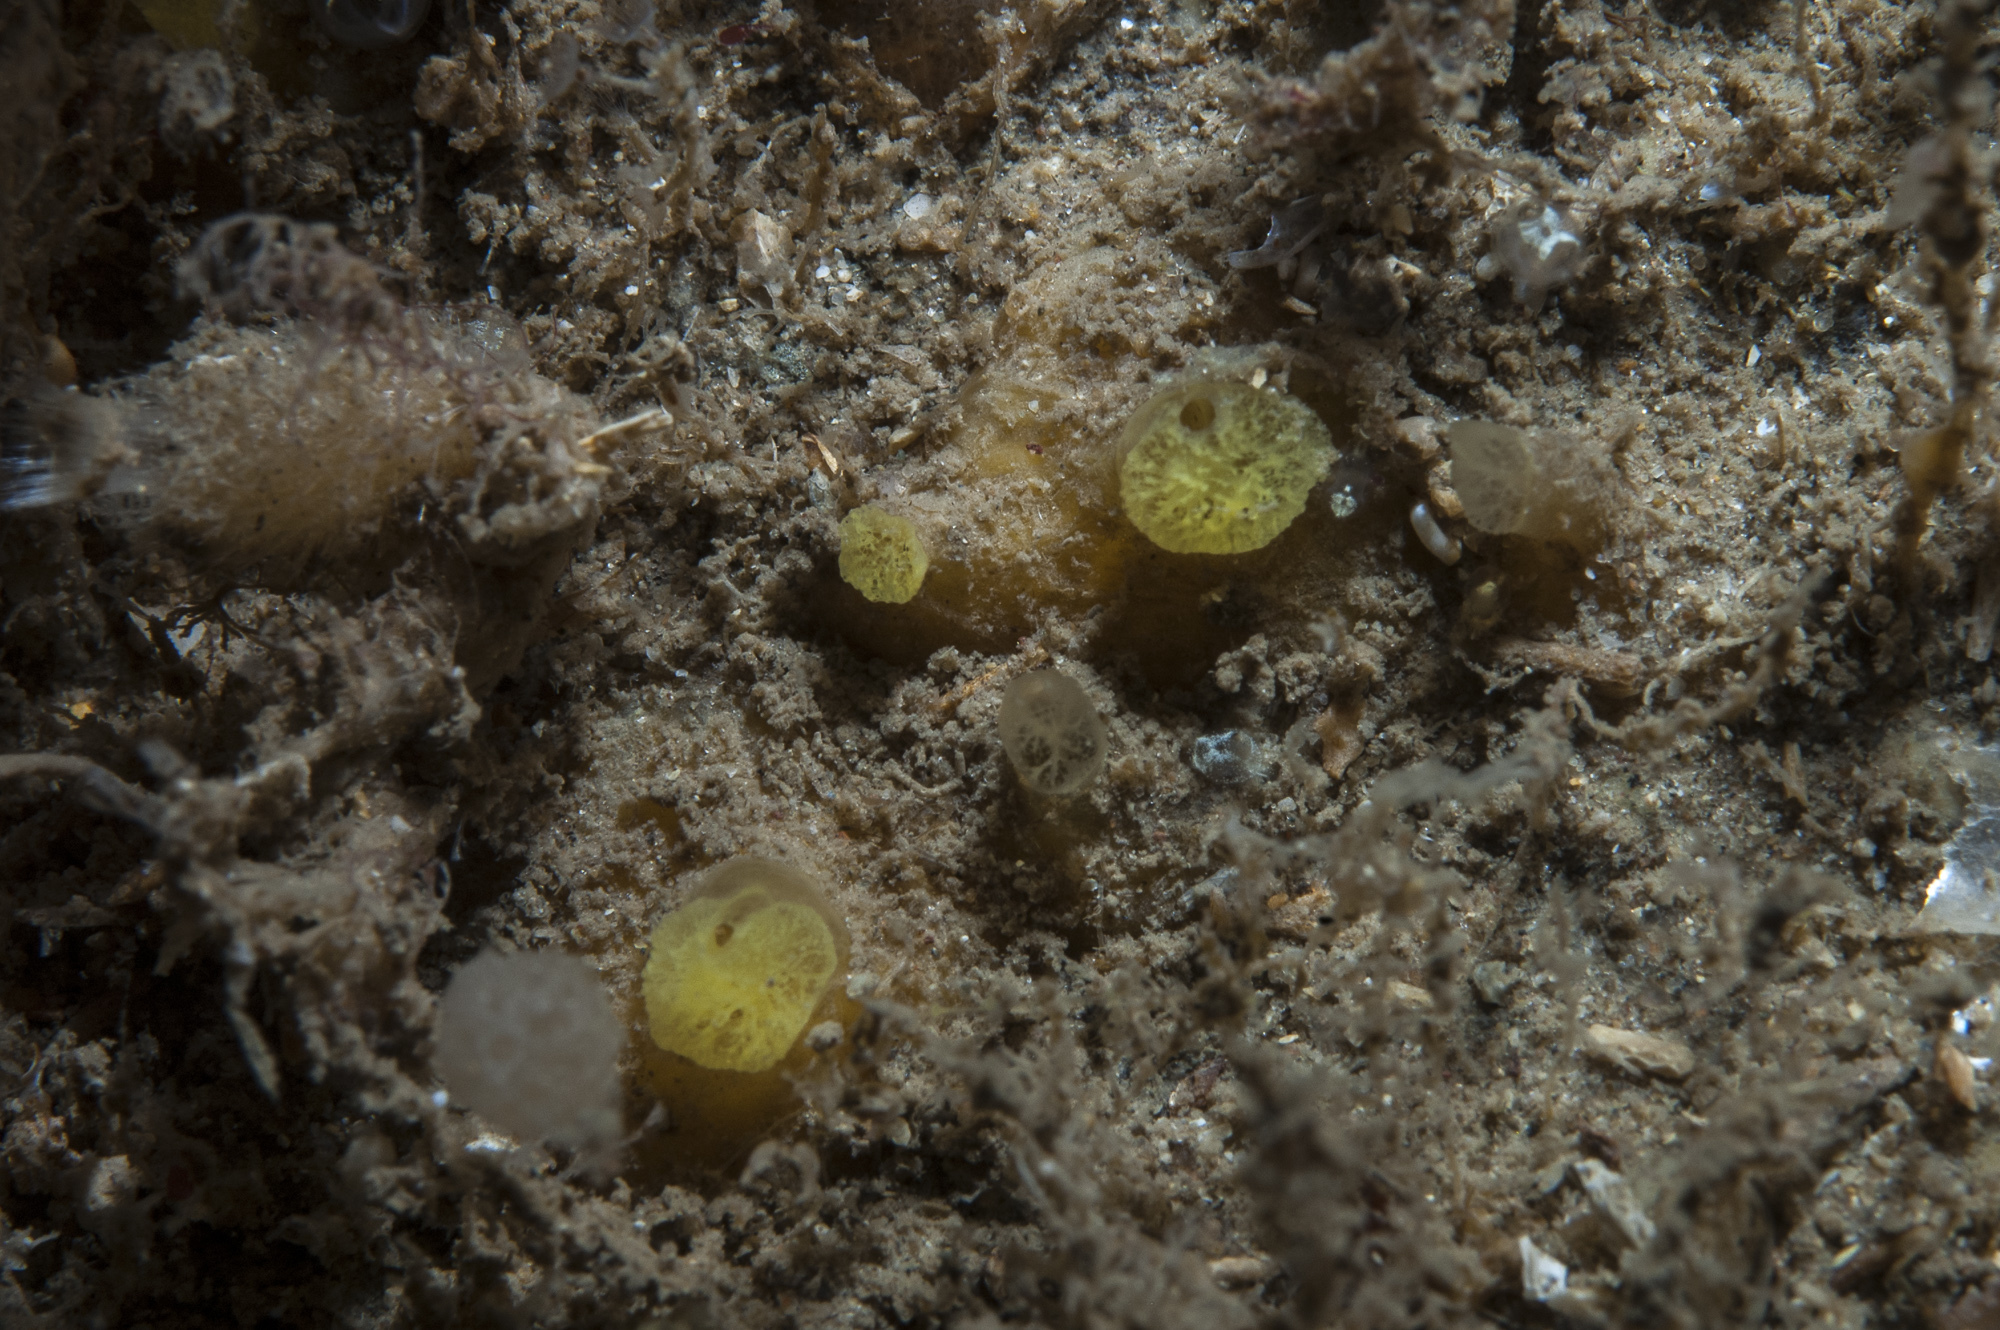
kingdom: Animalia
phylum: Porifera
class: Demospongiae
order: Poecilosclerida
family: Hymedesmiidae
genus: Hymedesmia
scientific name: Hymedesmia rathlinia
